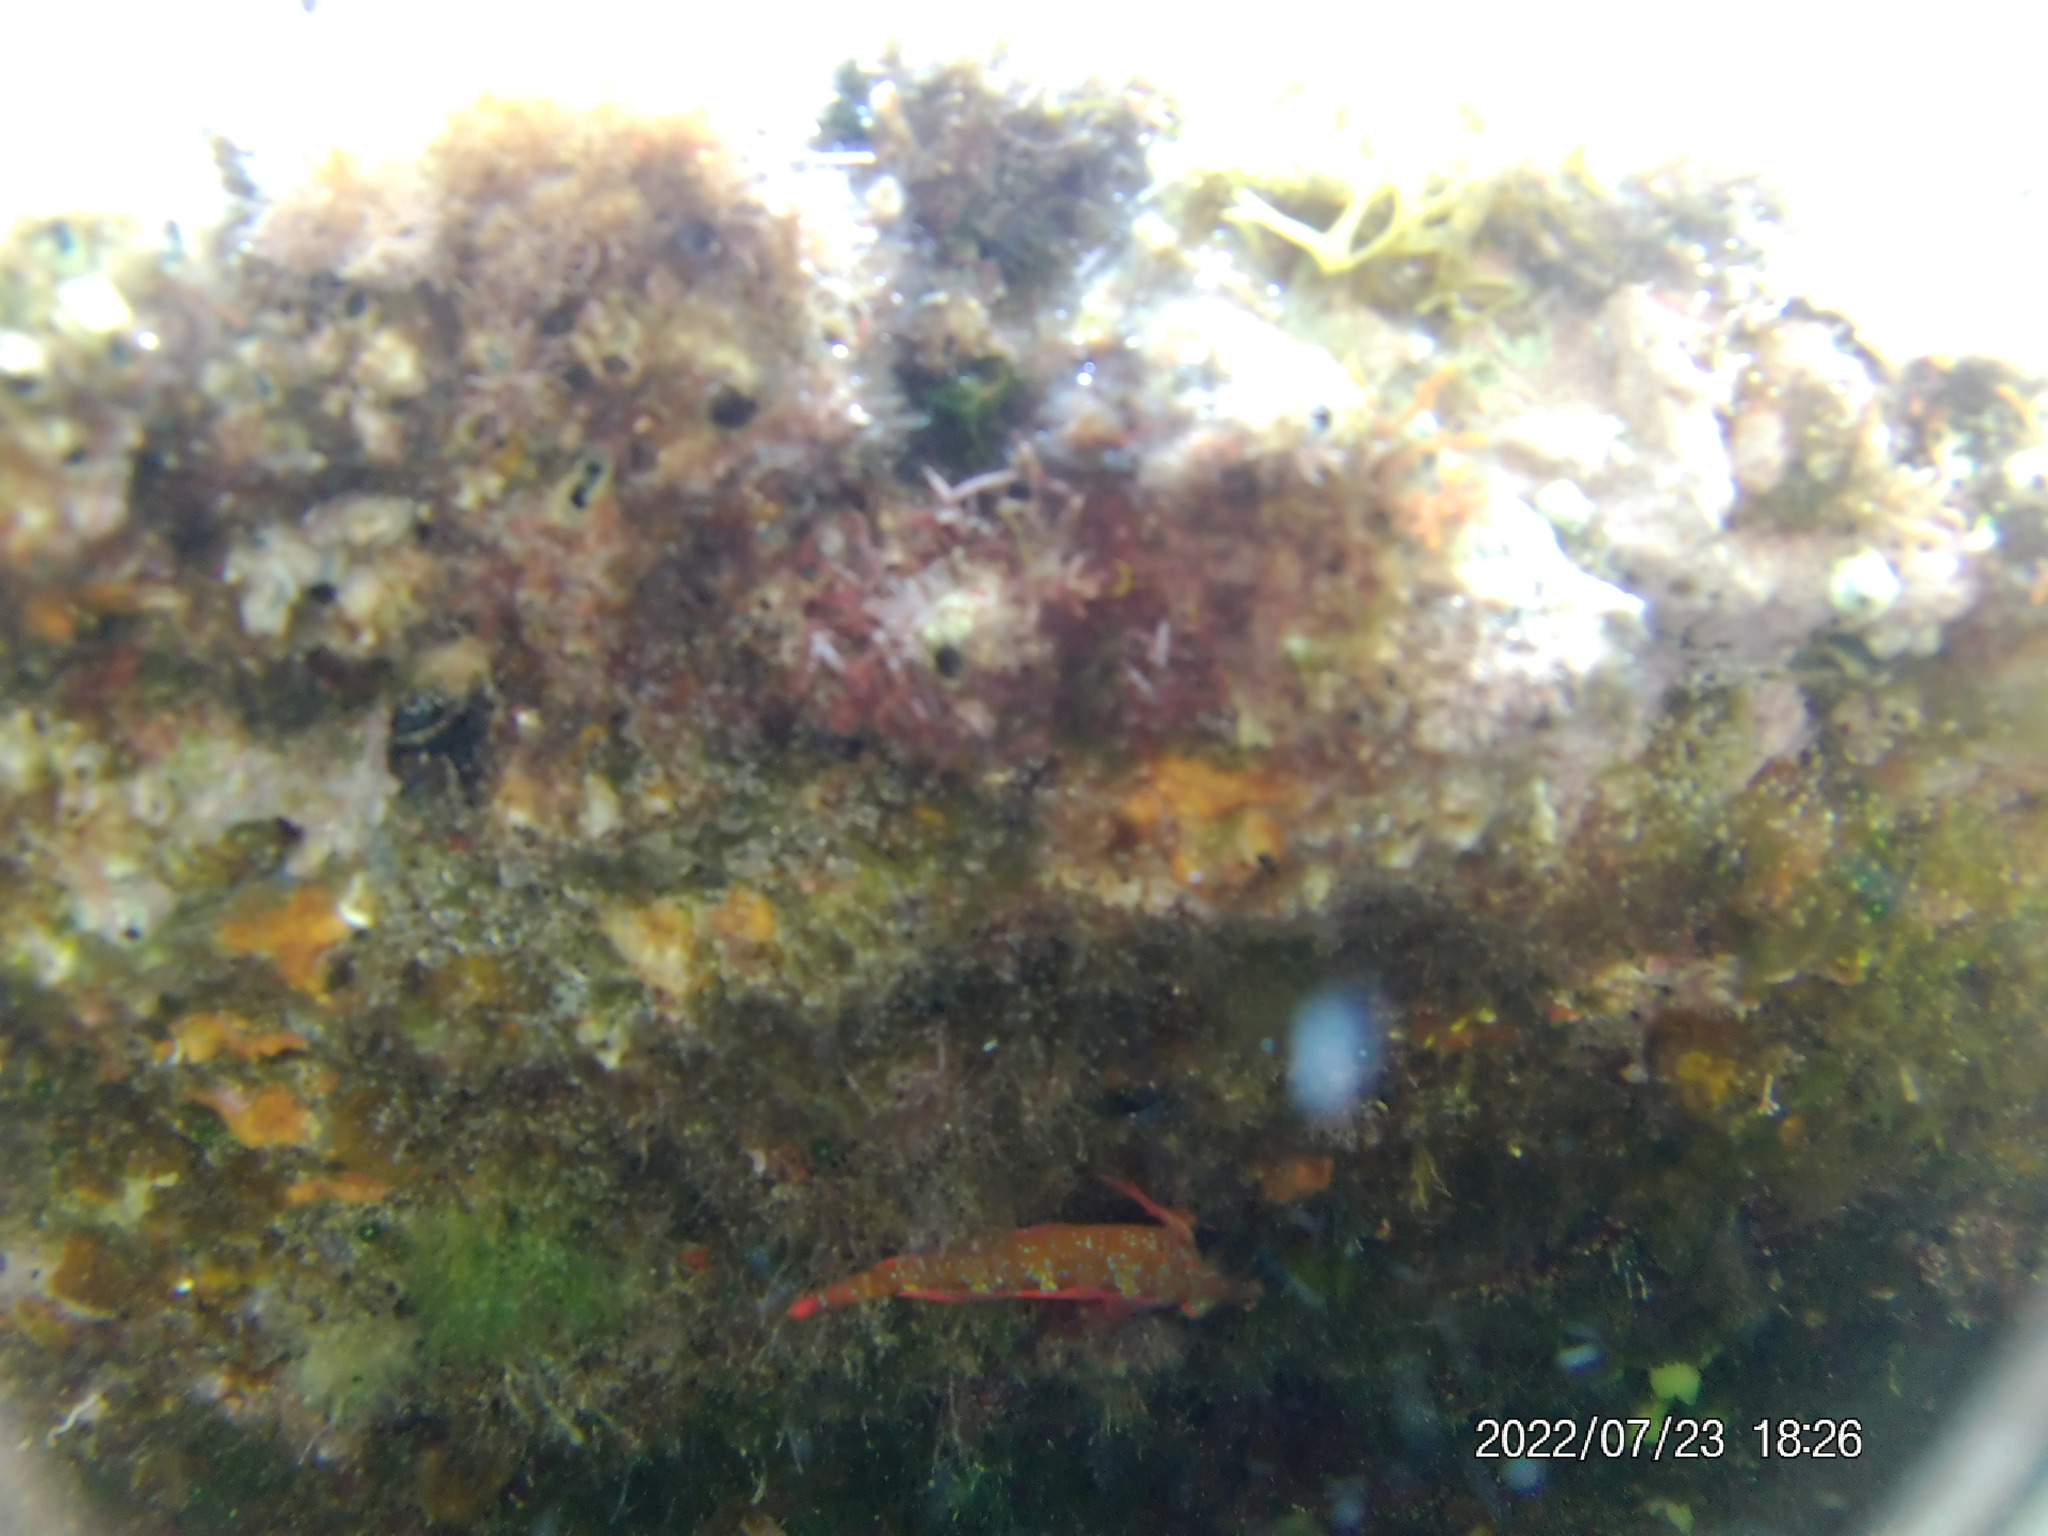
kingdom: Animalia
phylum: Chordata
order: Perciformes
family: Tripterygiidae
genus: Tripterygion
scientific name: Tripterygion tripteronotum
